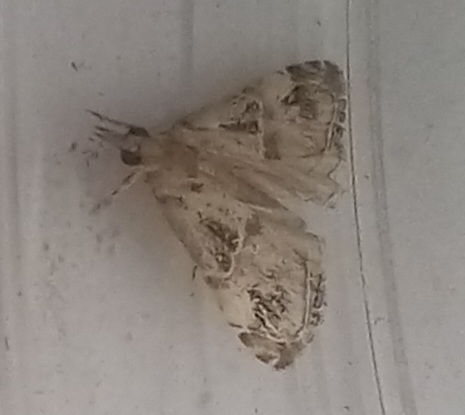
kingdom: Animalia
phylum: Arthropoda
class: Insecta
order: Lepidoptera
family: Crambidae
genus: Euchromius
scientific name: Euchromius cambridgei
